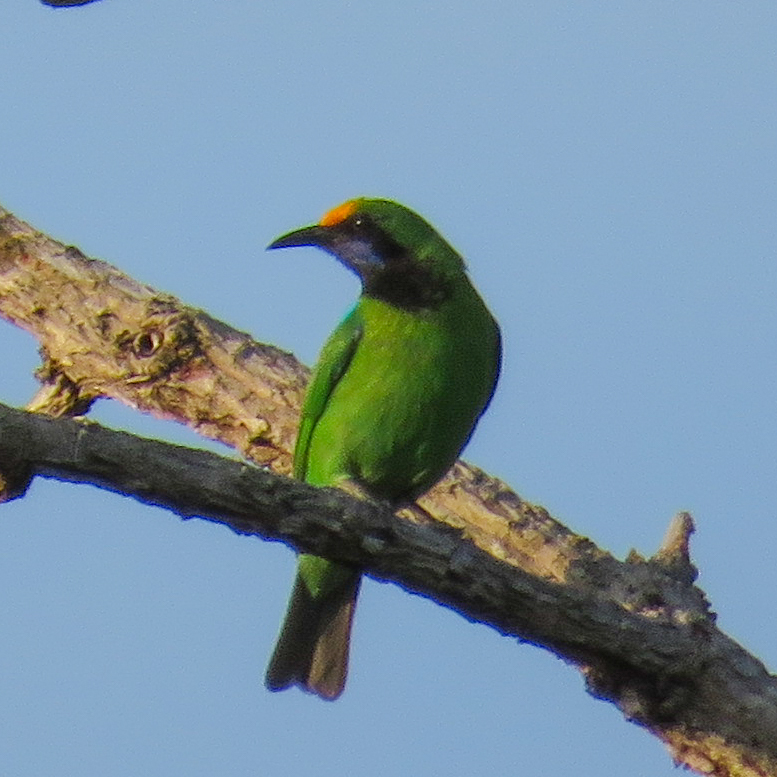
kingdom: Animalia
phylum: Chordata
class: Aves
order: Passeriformes
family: Chloropseidae
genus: Chloropsis
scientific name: Chloropsis aurifrons
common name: Golden-fronted leafbird
